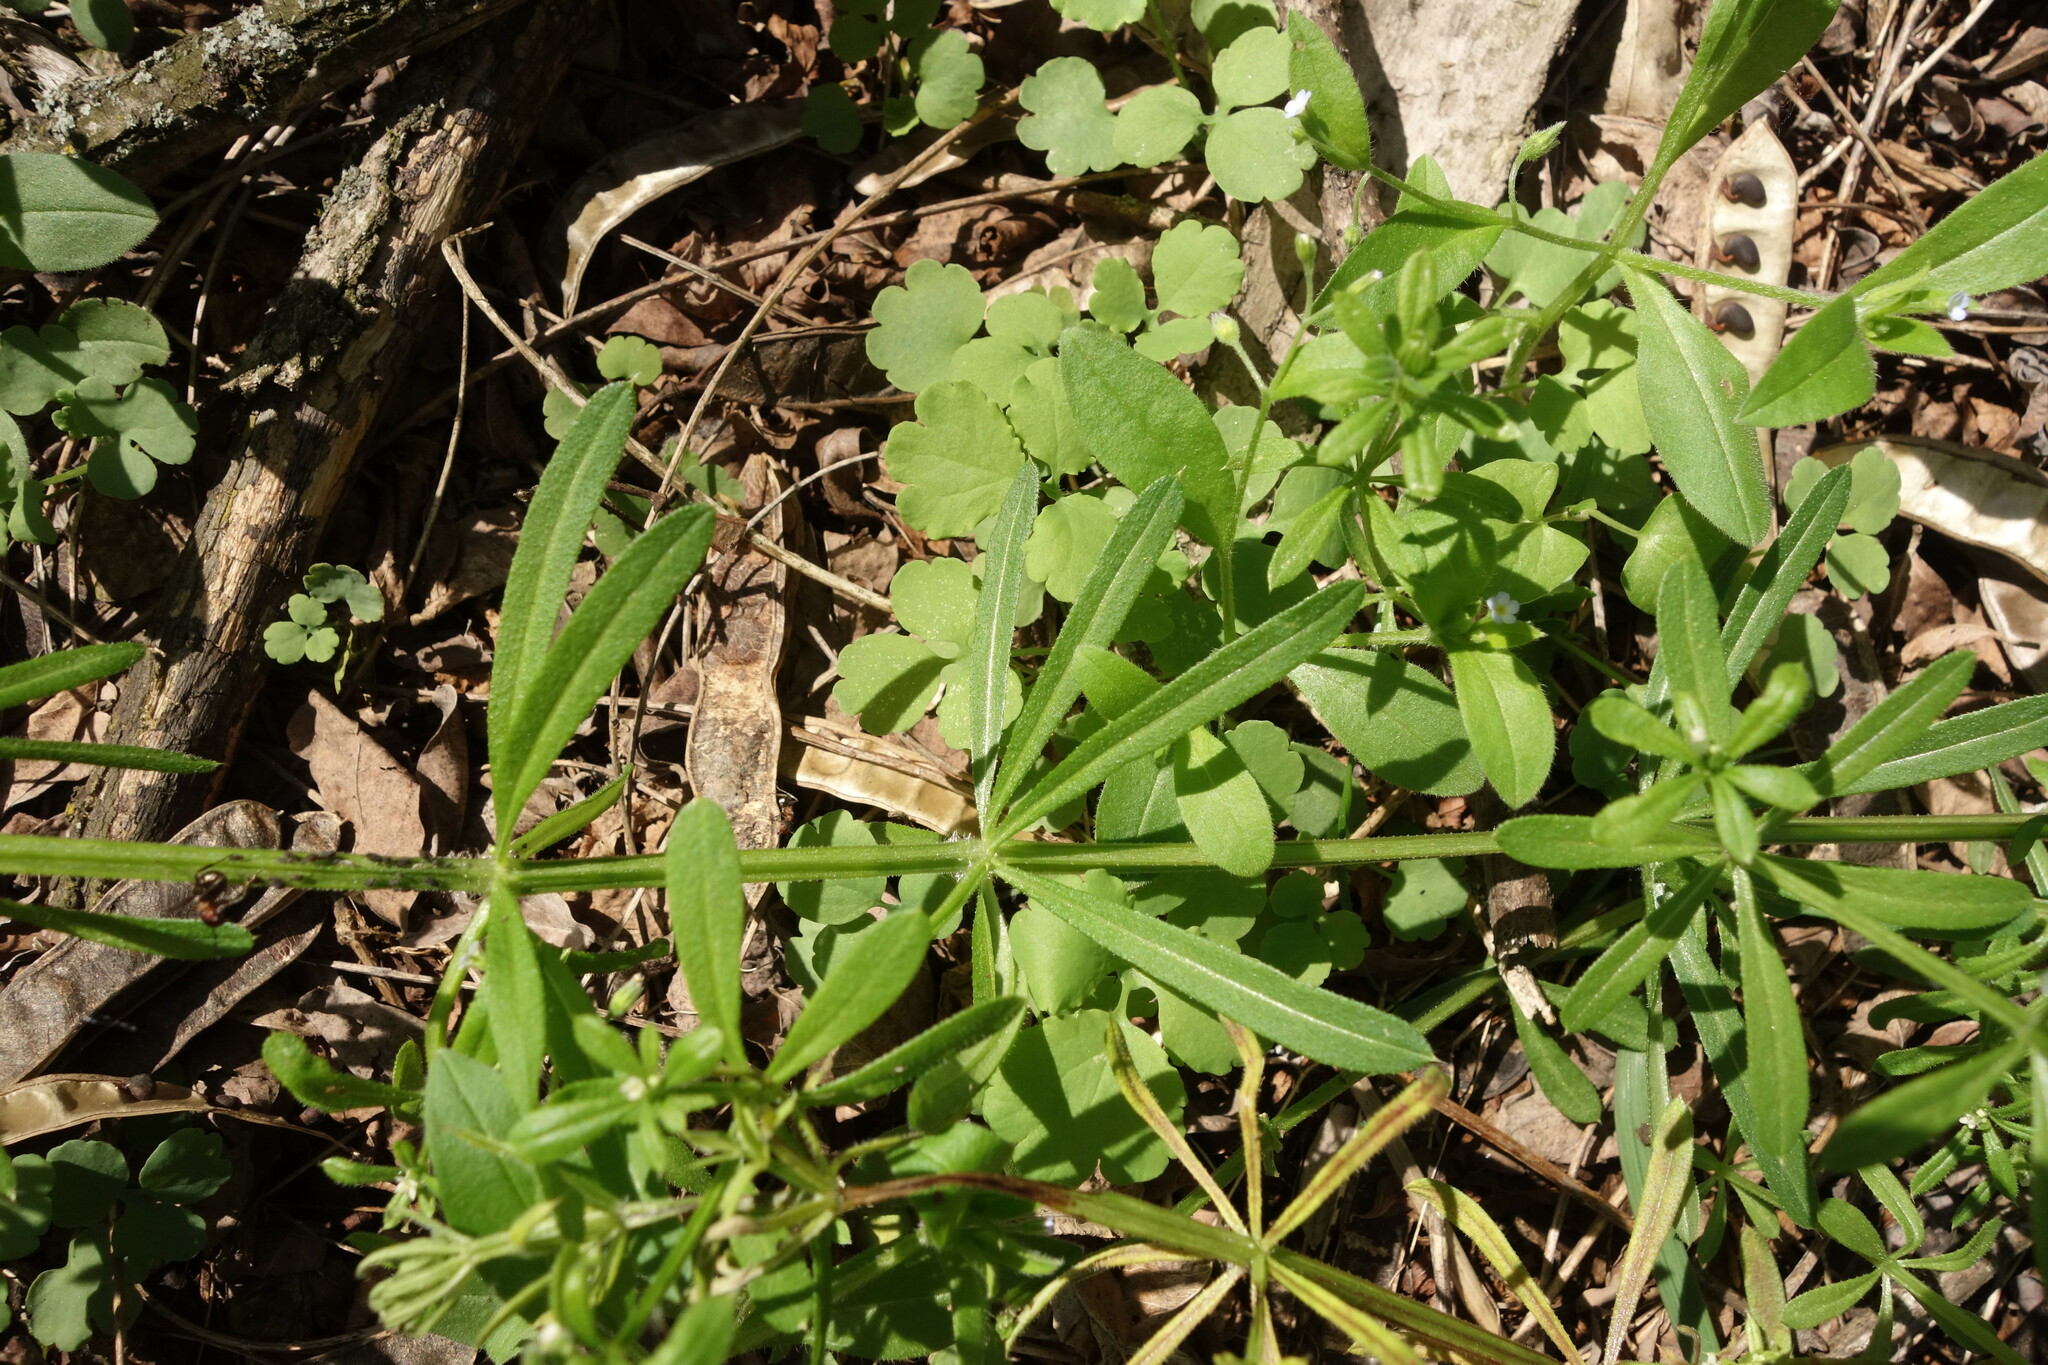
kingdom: Plantae
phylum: Tracheophyta
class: Magnoliopsida
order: Gentianales
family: Rubiaceae
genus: Galium
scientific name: Galium aparine
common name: Cleavers
